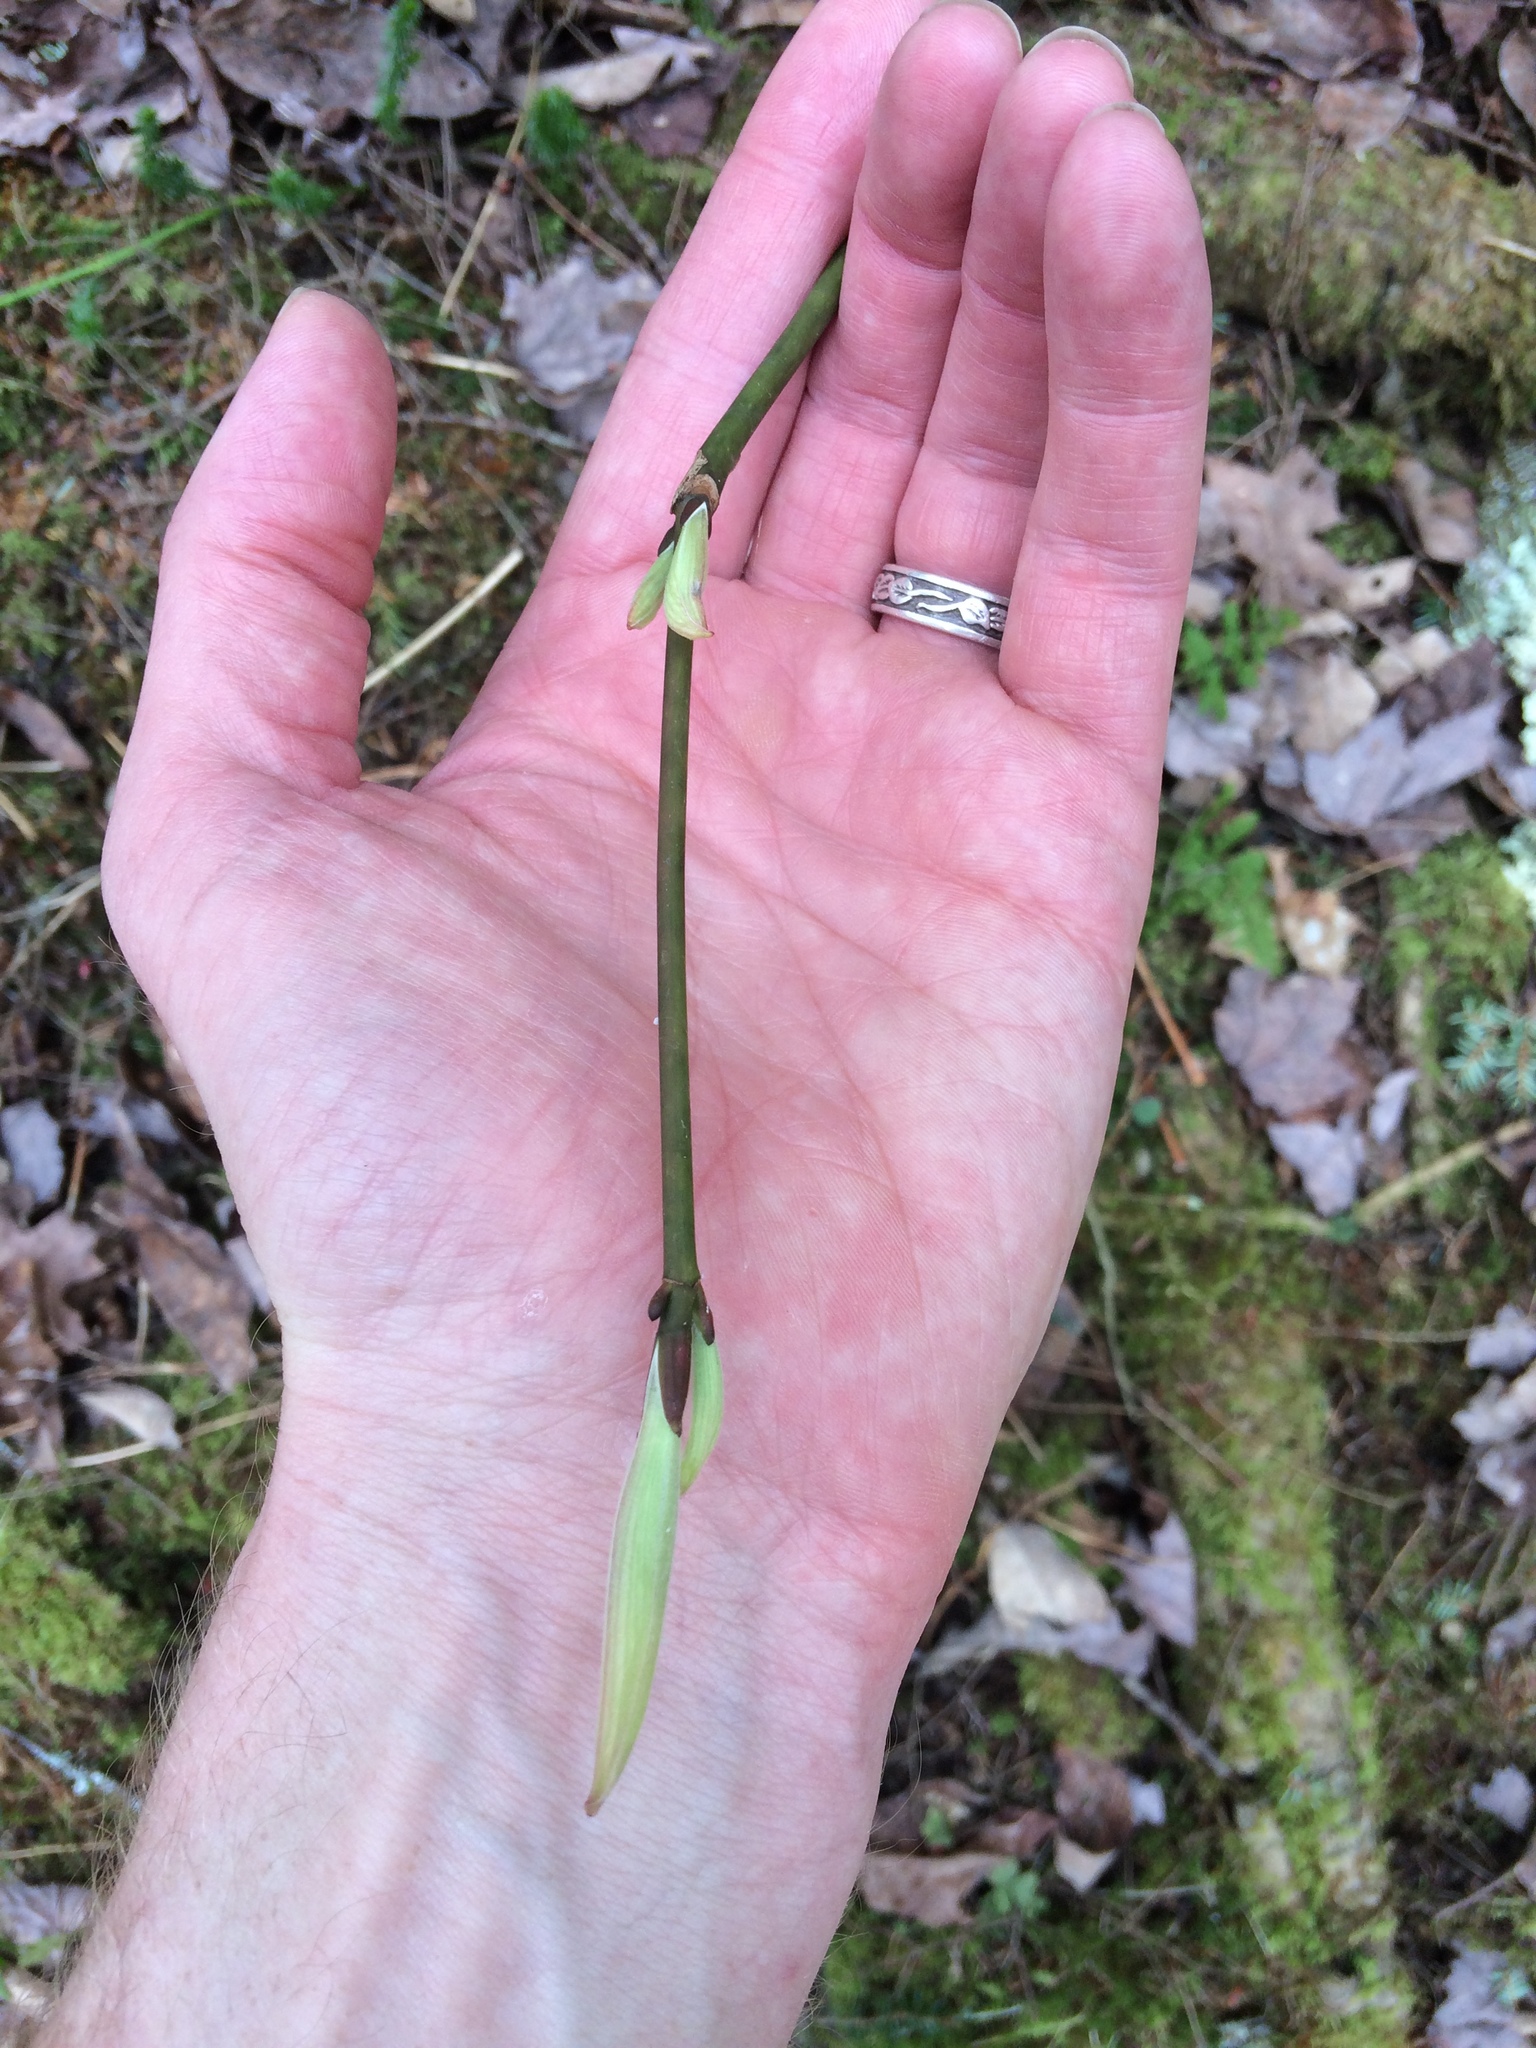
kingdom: Plantae
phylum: Tracheophyta
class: Magnoliopsida
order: Sapindales
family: Sapindaceae
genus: Acer
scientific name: Acer pensylvanicum
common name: Moosewood
